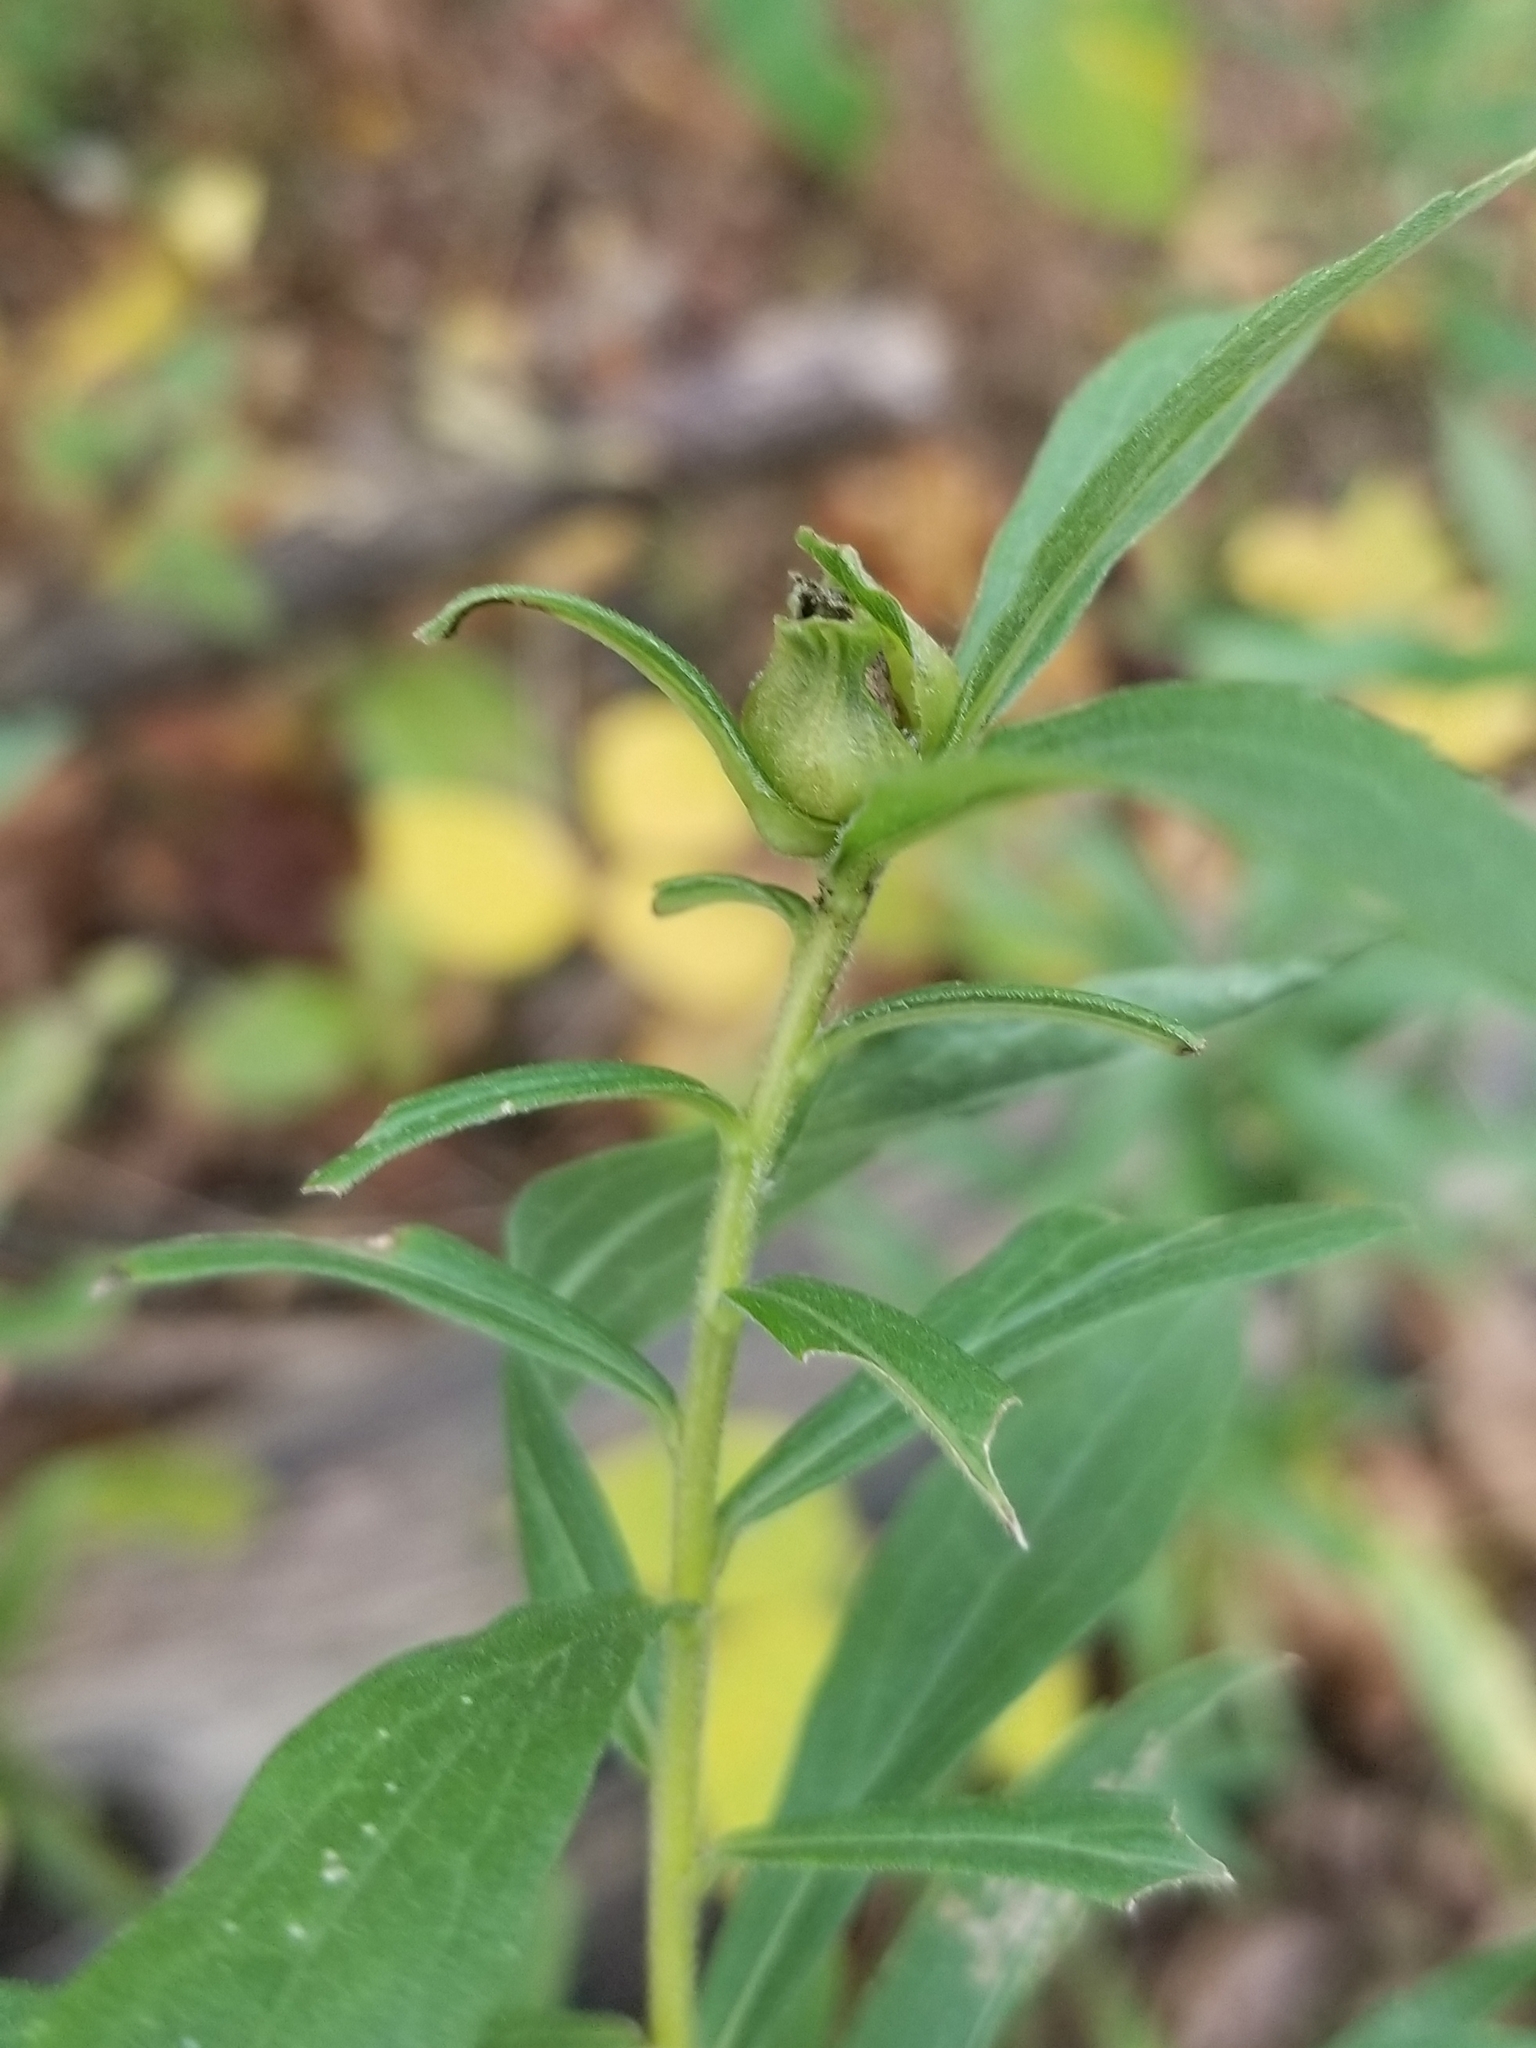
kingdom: Animalia
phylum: Arthropoda
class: Insecta
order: Diptera
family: Cecidomyiidae
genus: Dasineura
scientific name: Dasineura folliculi
